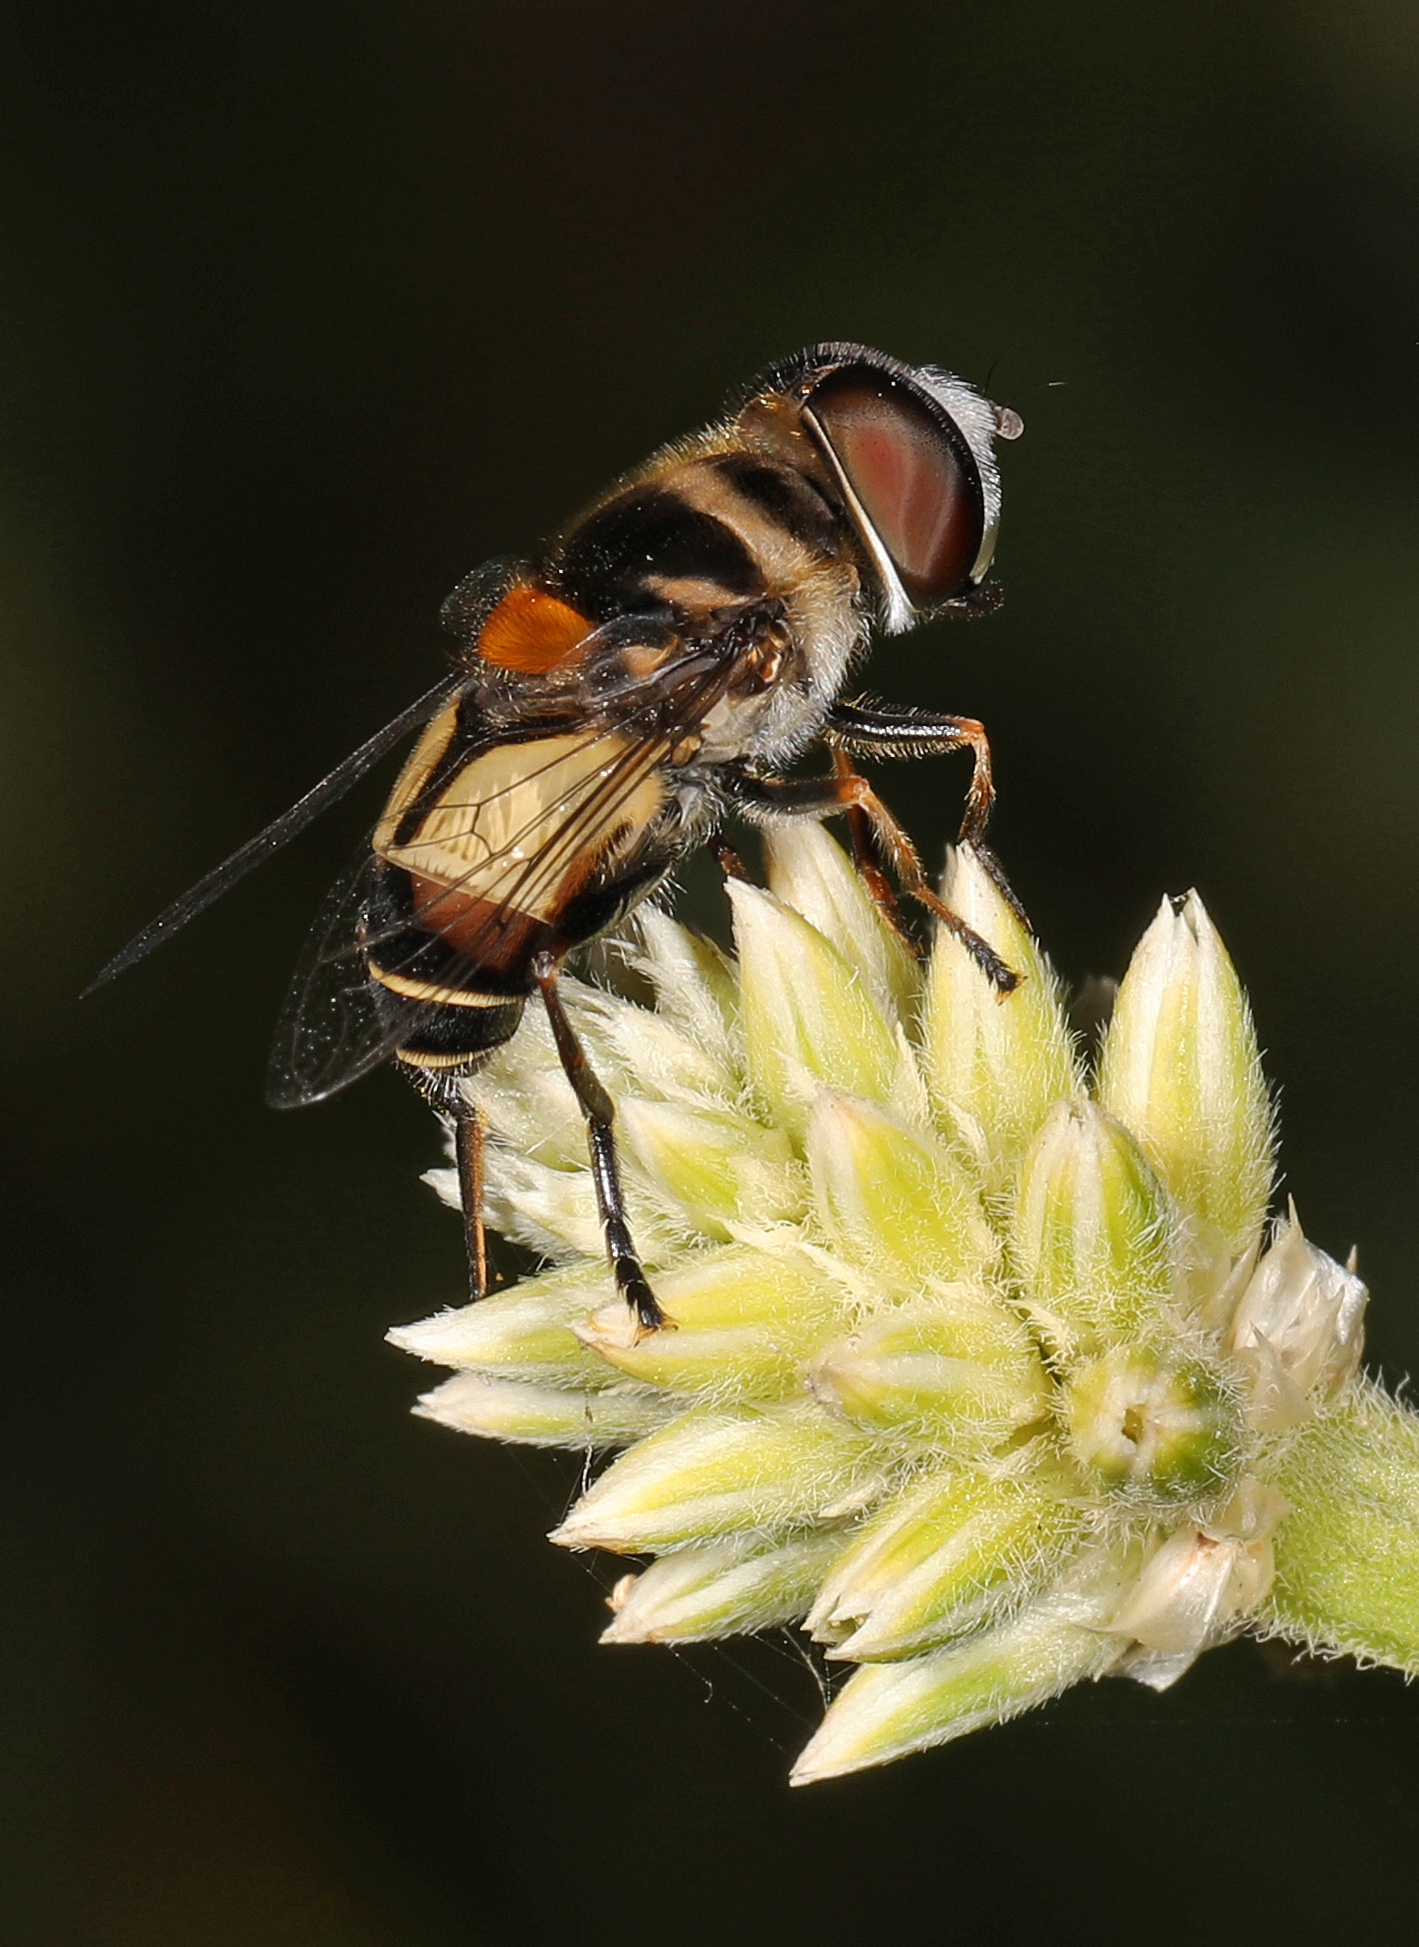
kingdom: Animalia
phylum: Arthropoda
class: Insecta
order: Diptera
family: Syrphidae
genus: Palpada
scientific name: Palpada albifrons
